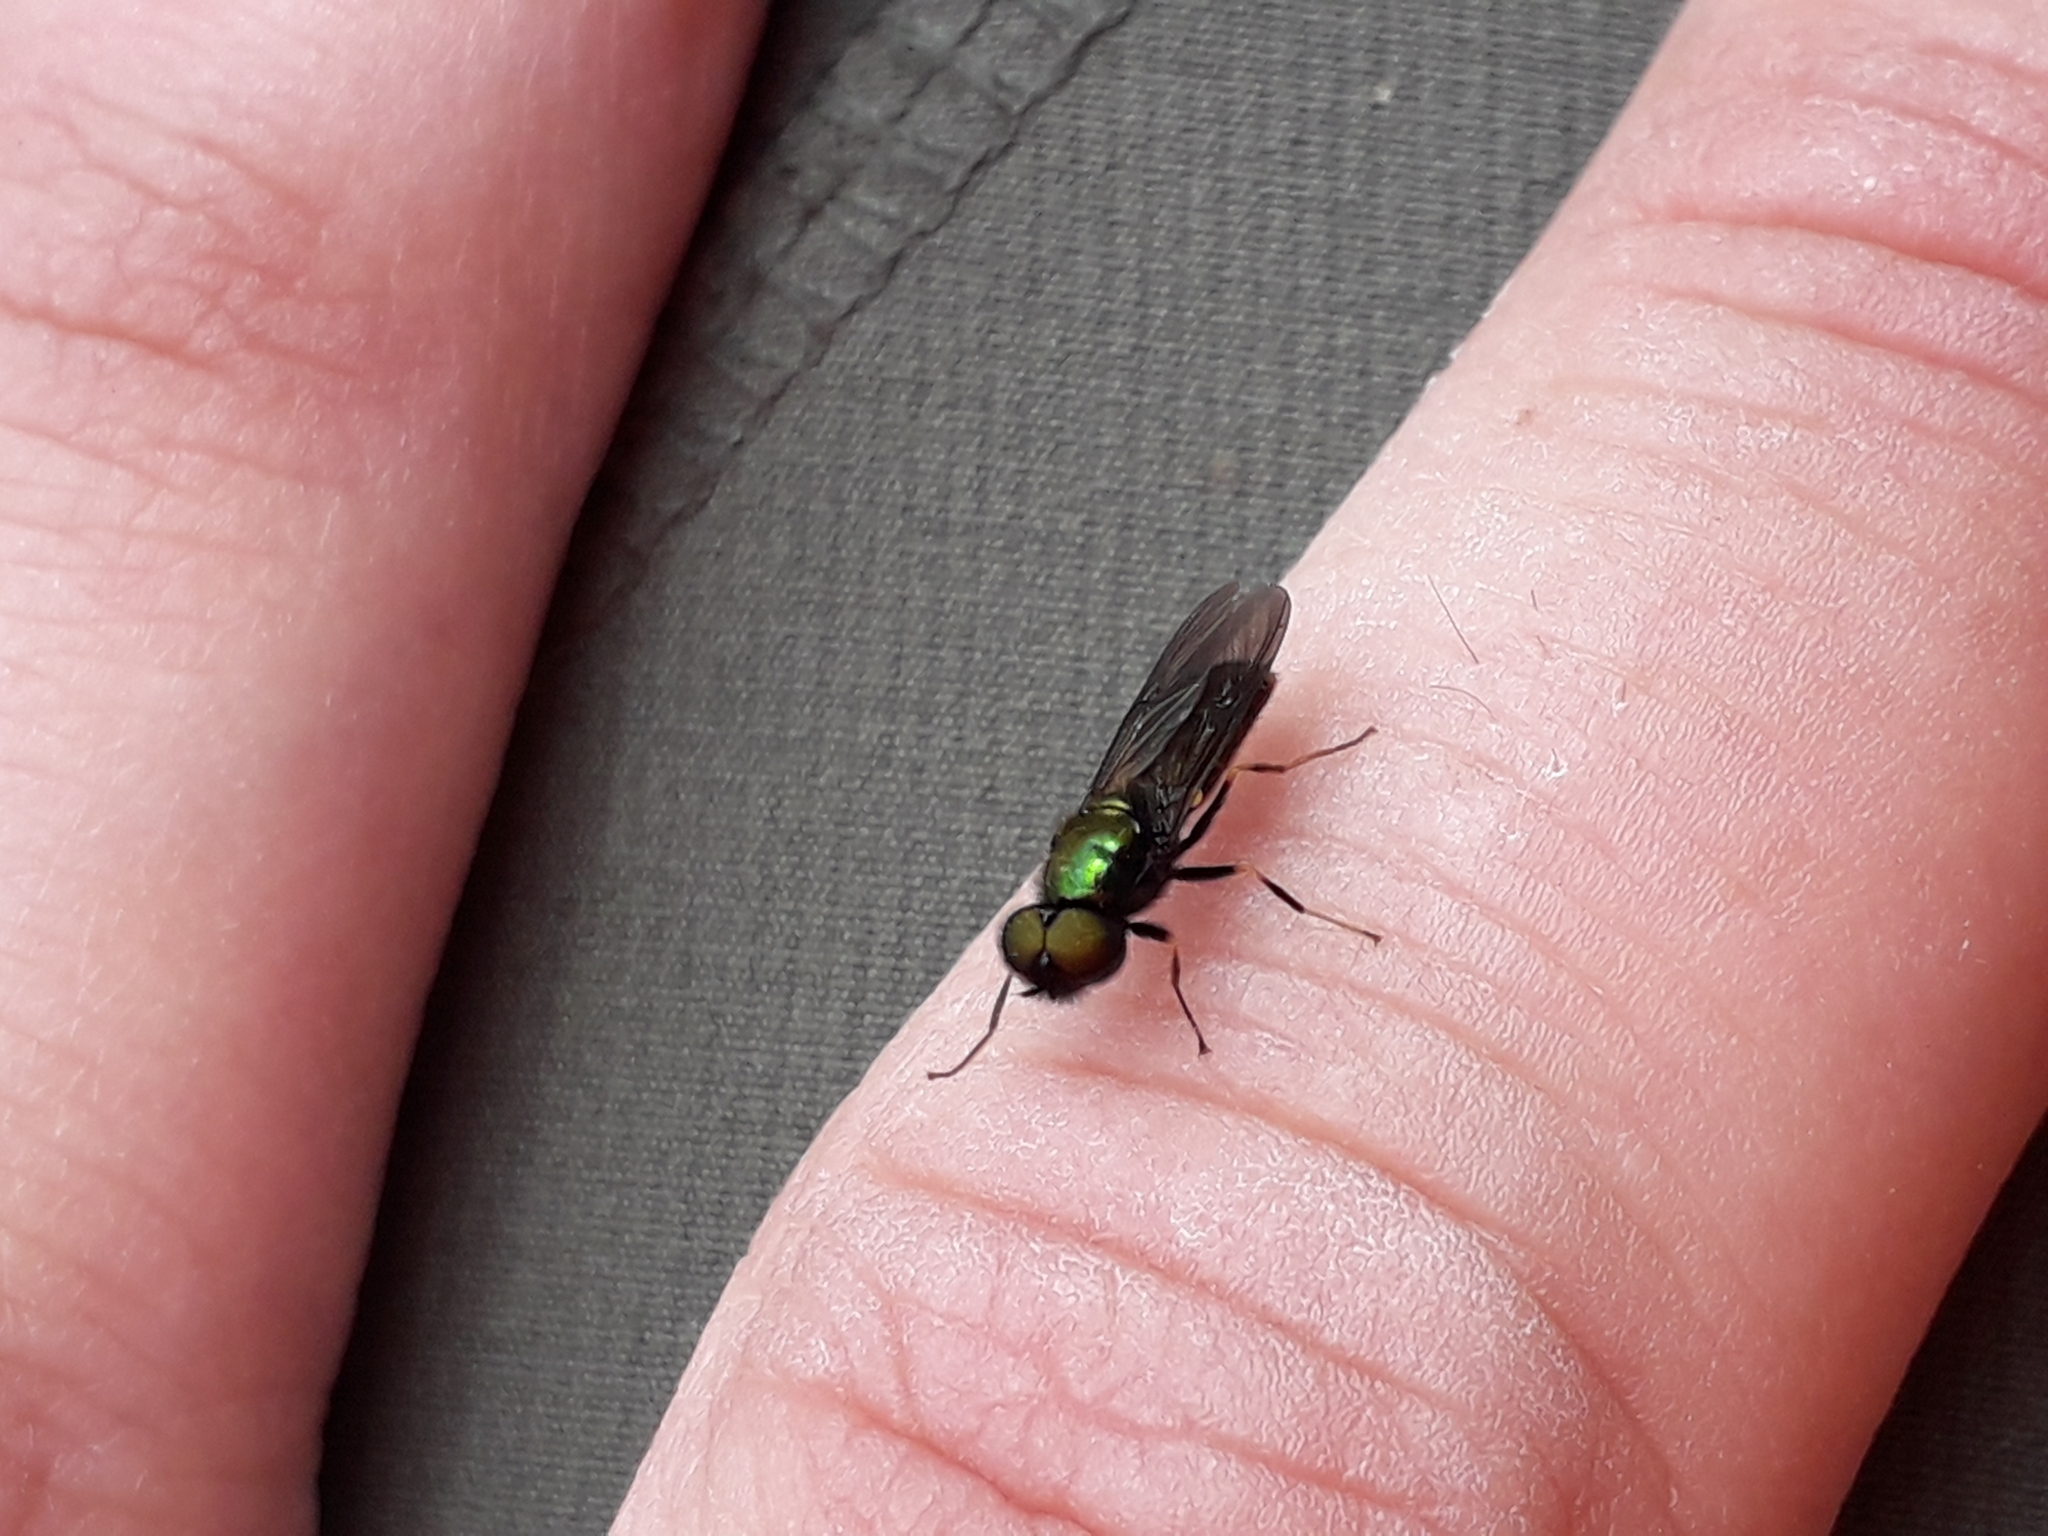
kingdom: Animalia
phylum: Arthropoda
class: Insecta
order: Diptera
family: Stratiomyidae
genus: Chloromyia
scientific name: Chloromyia speciosa
